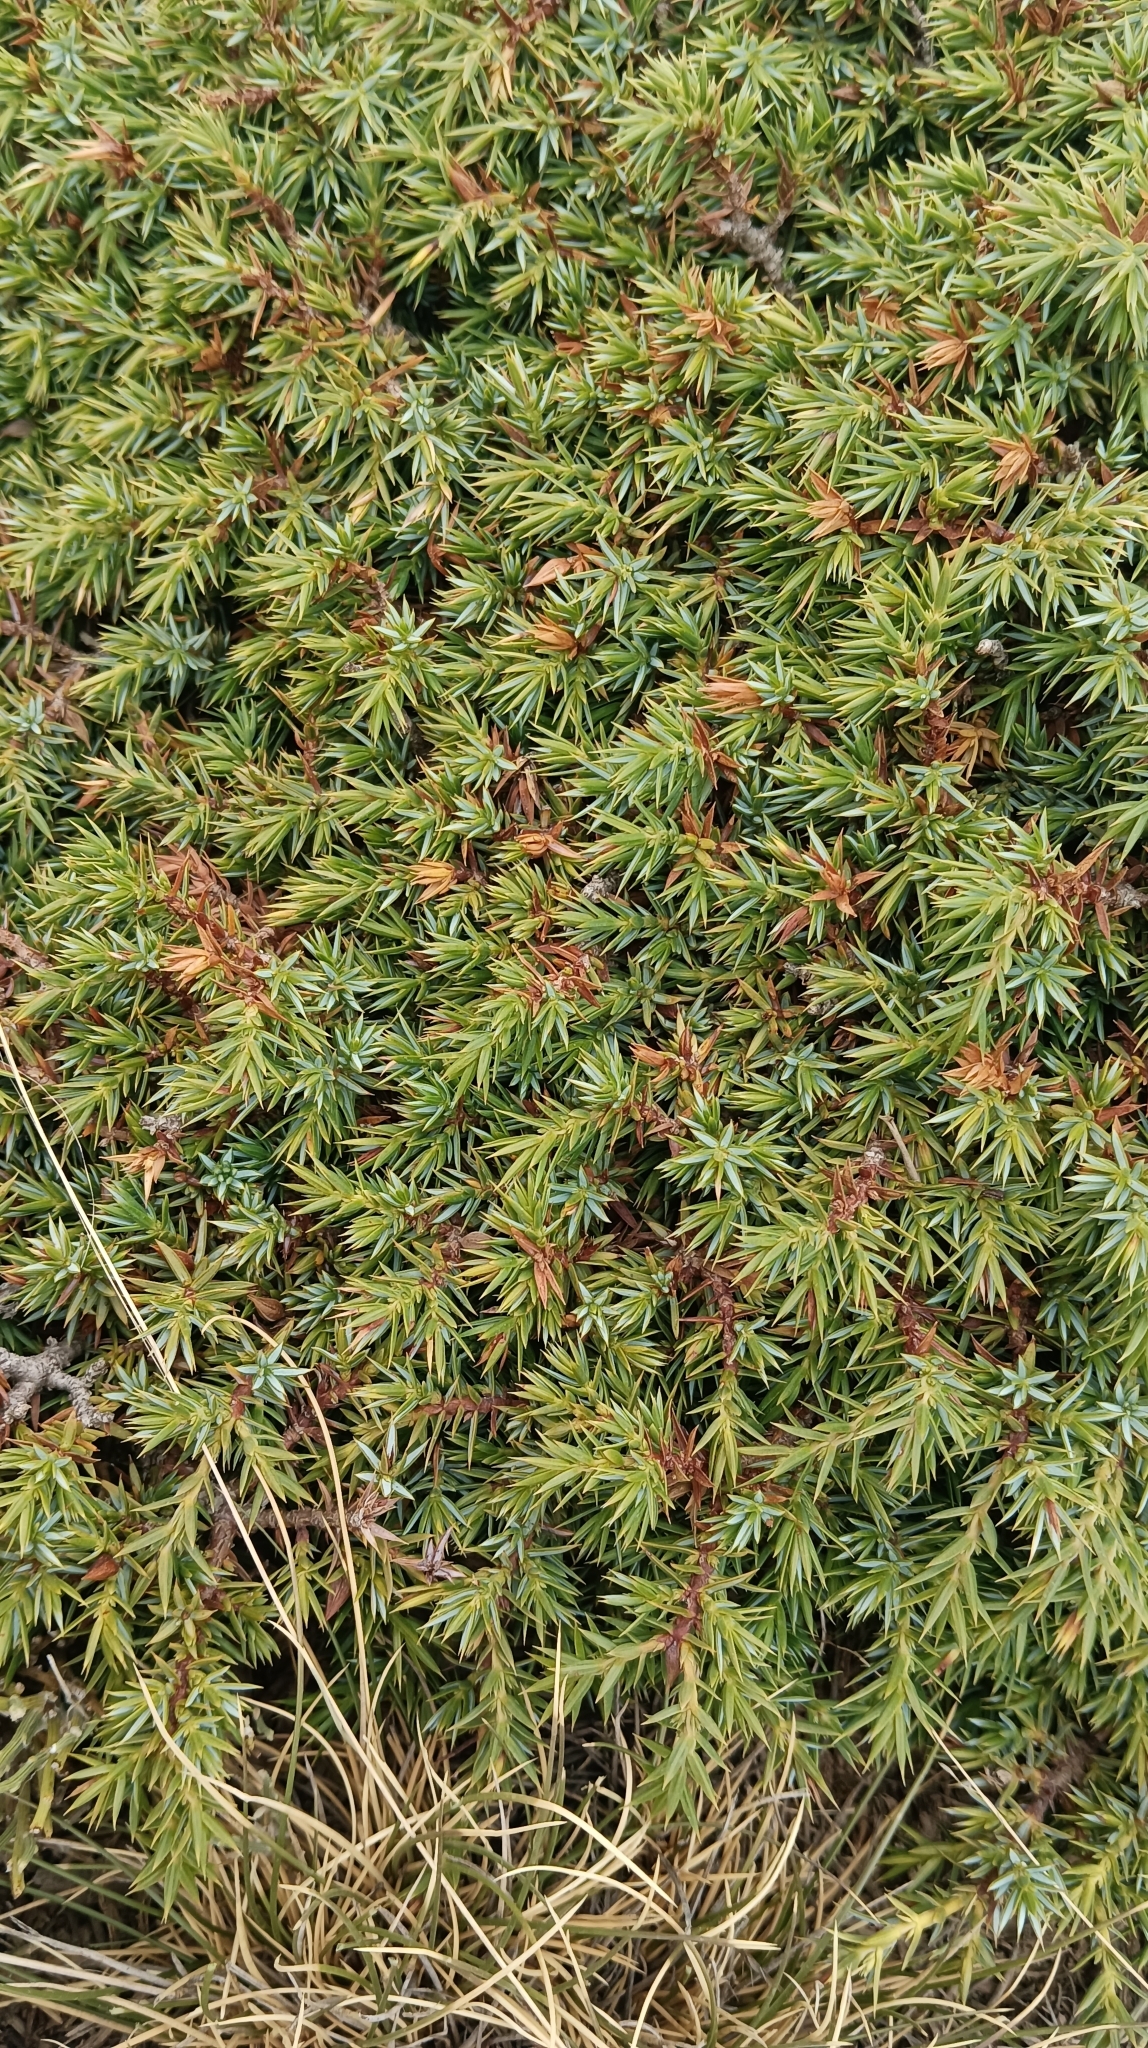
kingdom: Plantae
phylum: Tracheophyta
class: Pinopsida
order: Pinales
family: Cupressaceae
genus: Juniperus
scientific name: Juniperus communis
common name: Common juniper
